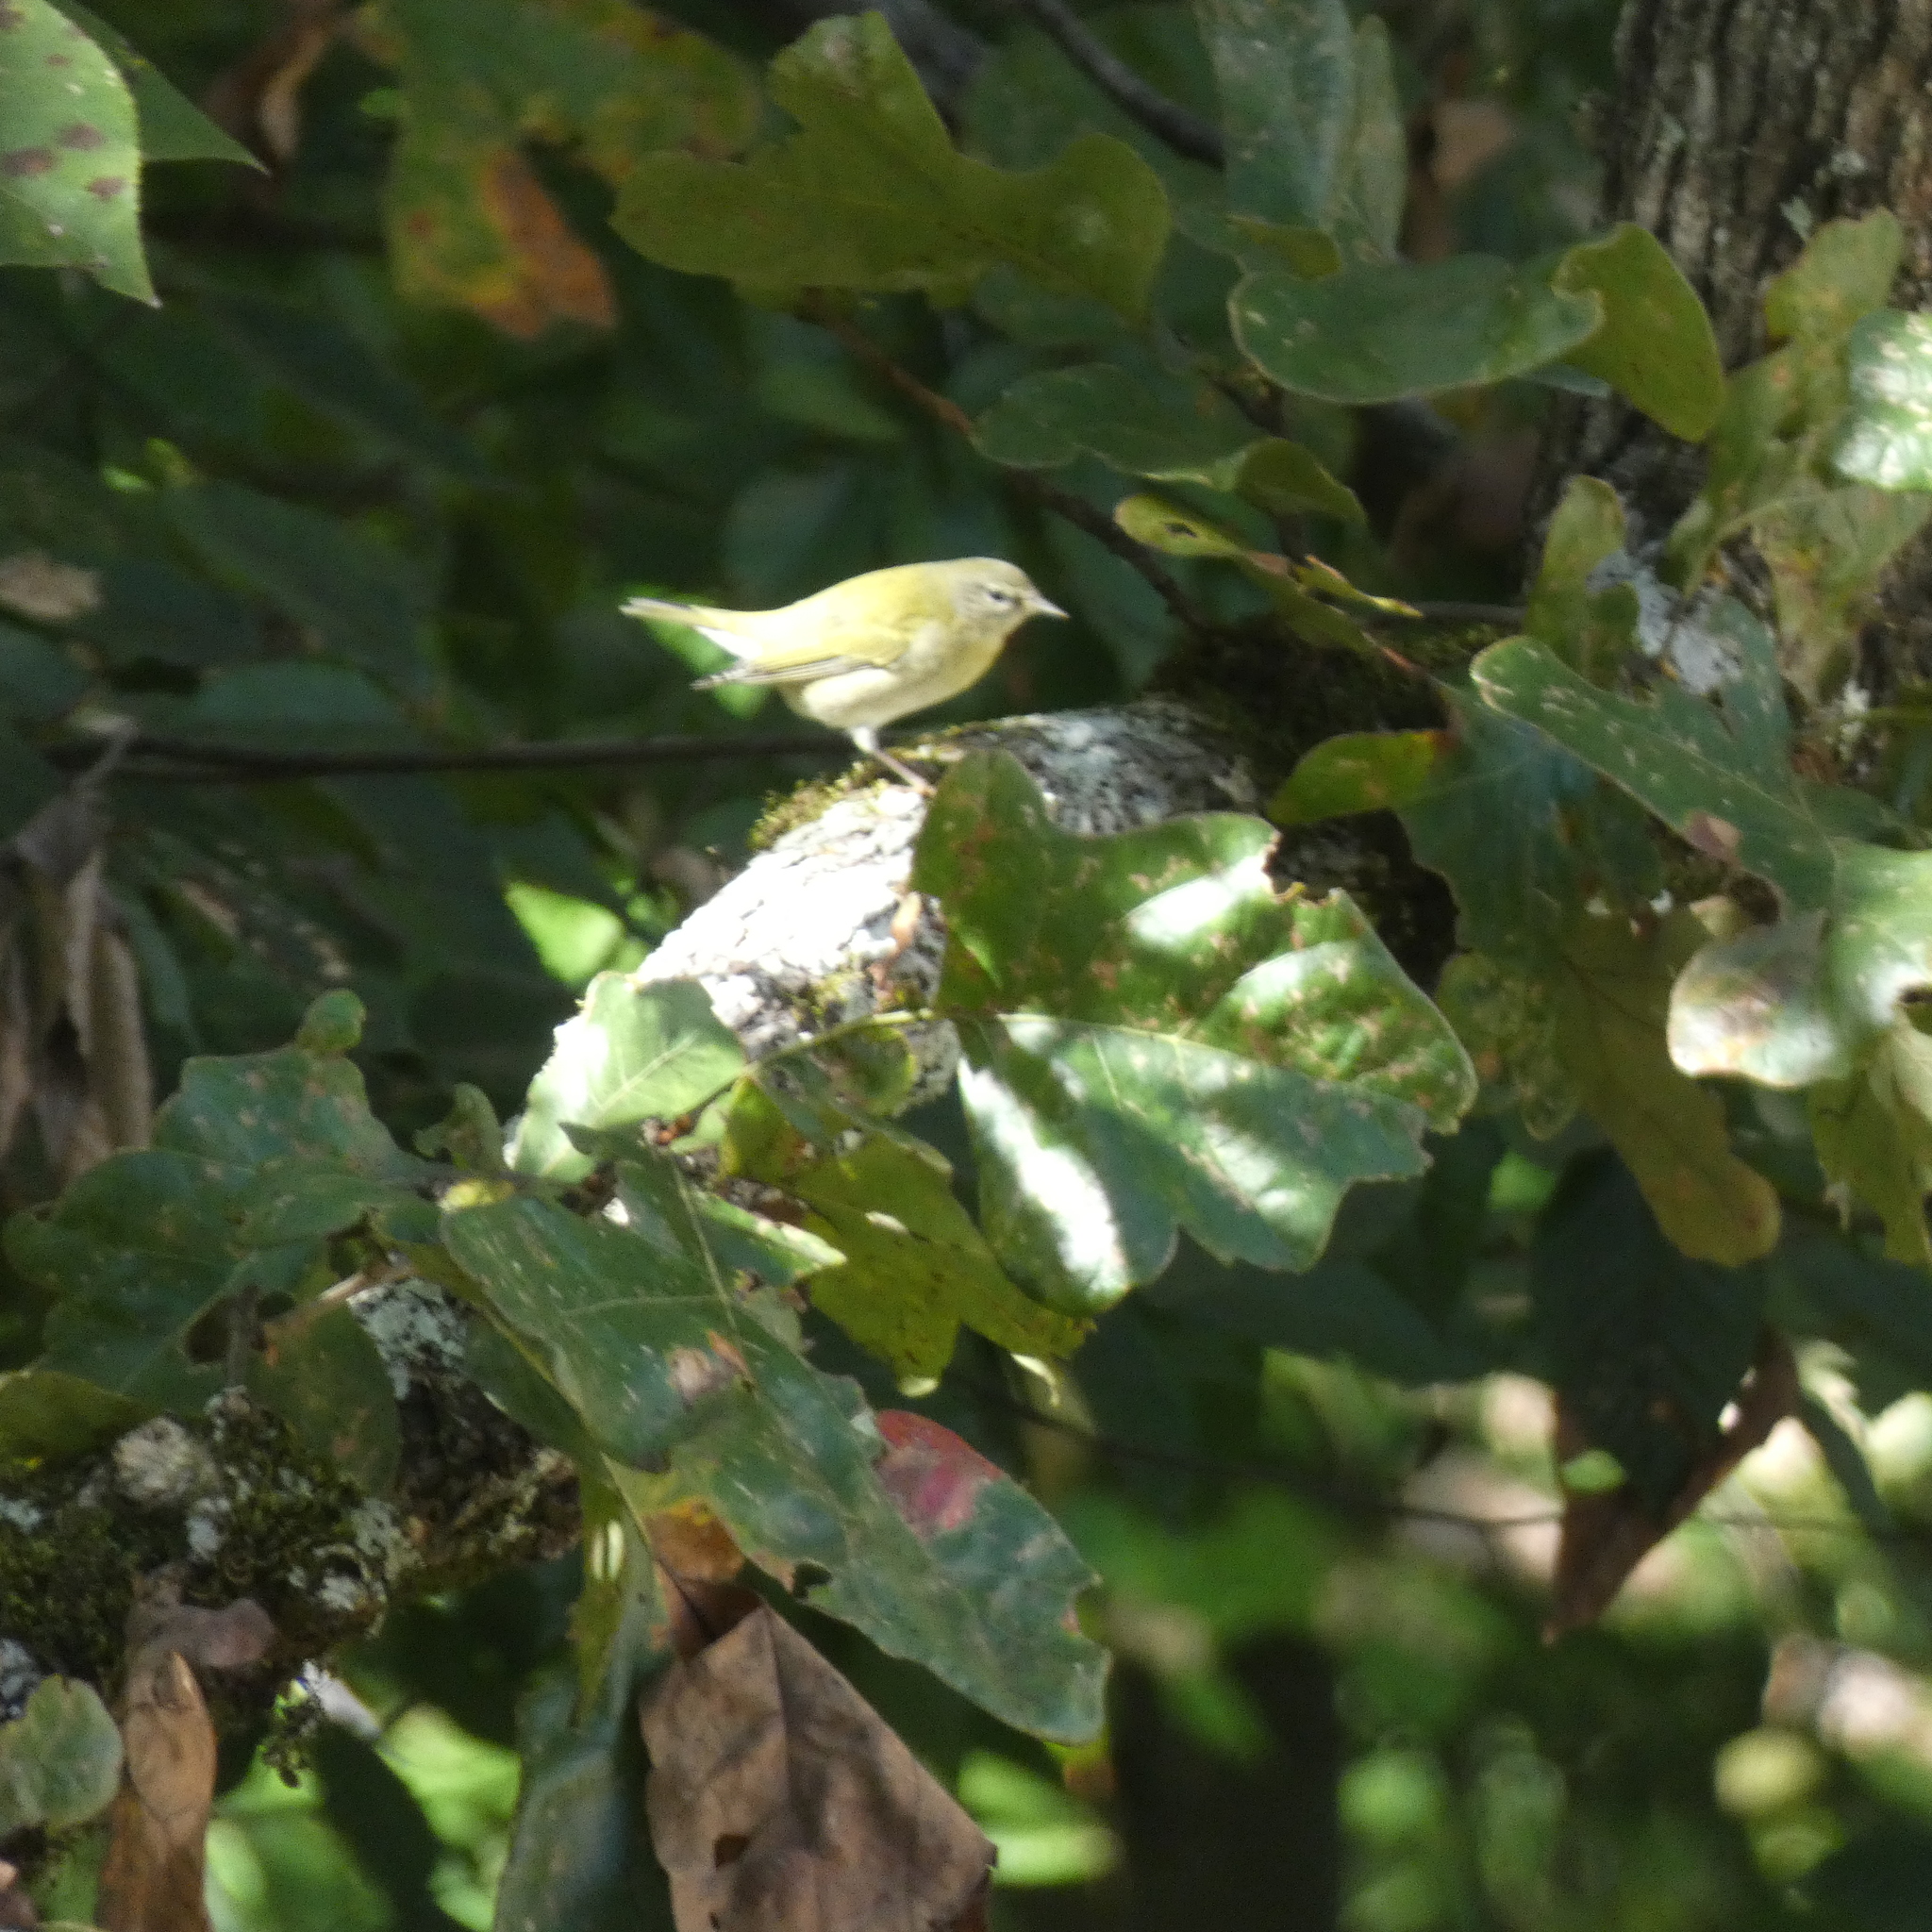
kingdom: Animalia
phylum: Chordata
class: Aves
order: Passeriformes
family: Parulidae
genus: Leiothlypis
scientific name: Leiothlypis peregrina
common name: Tennessee warbler
